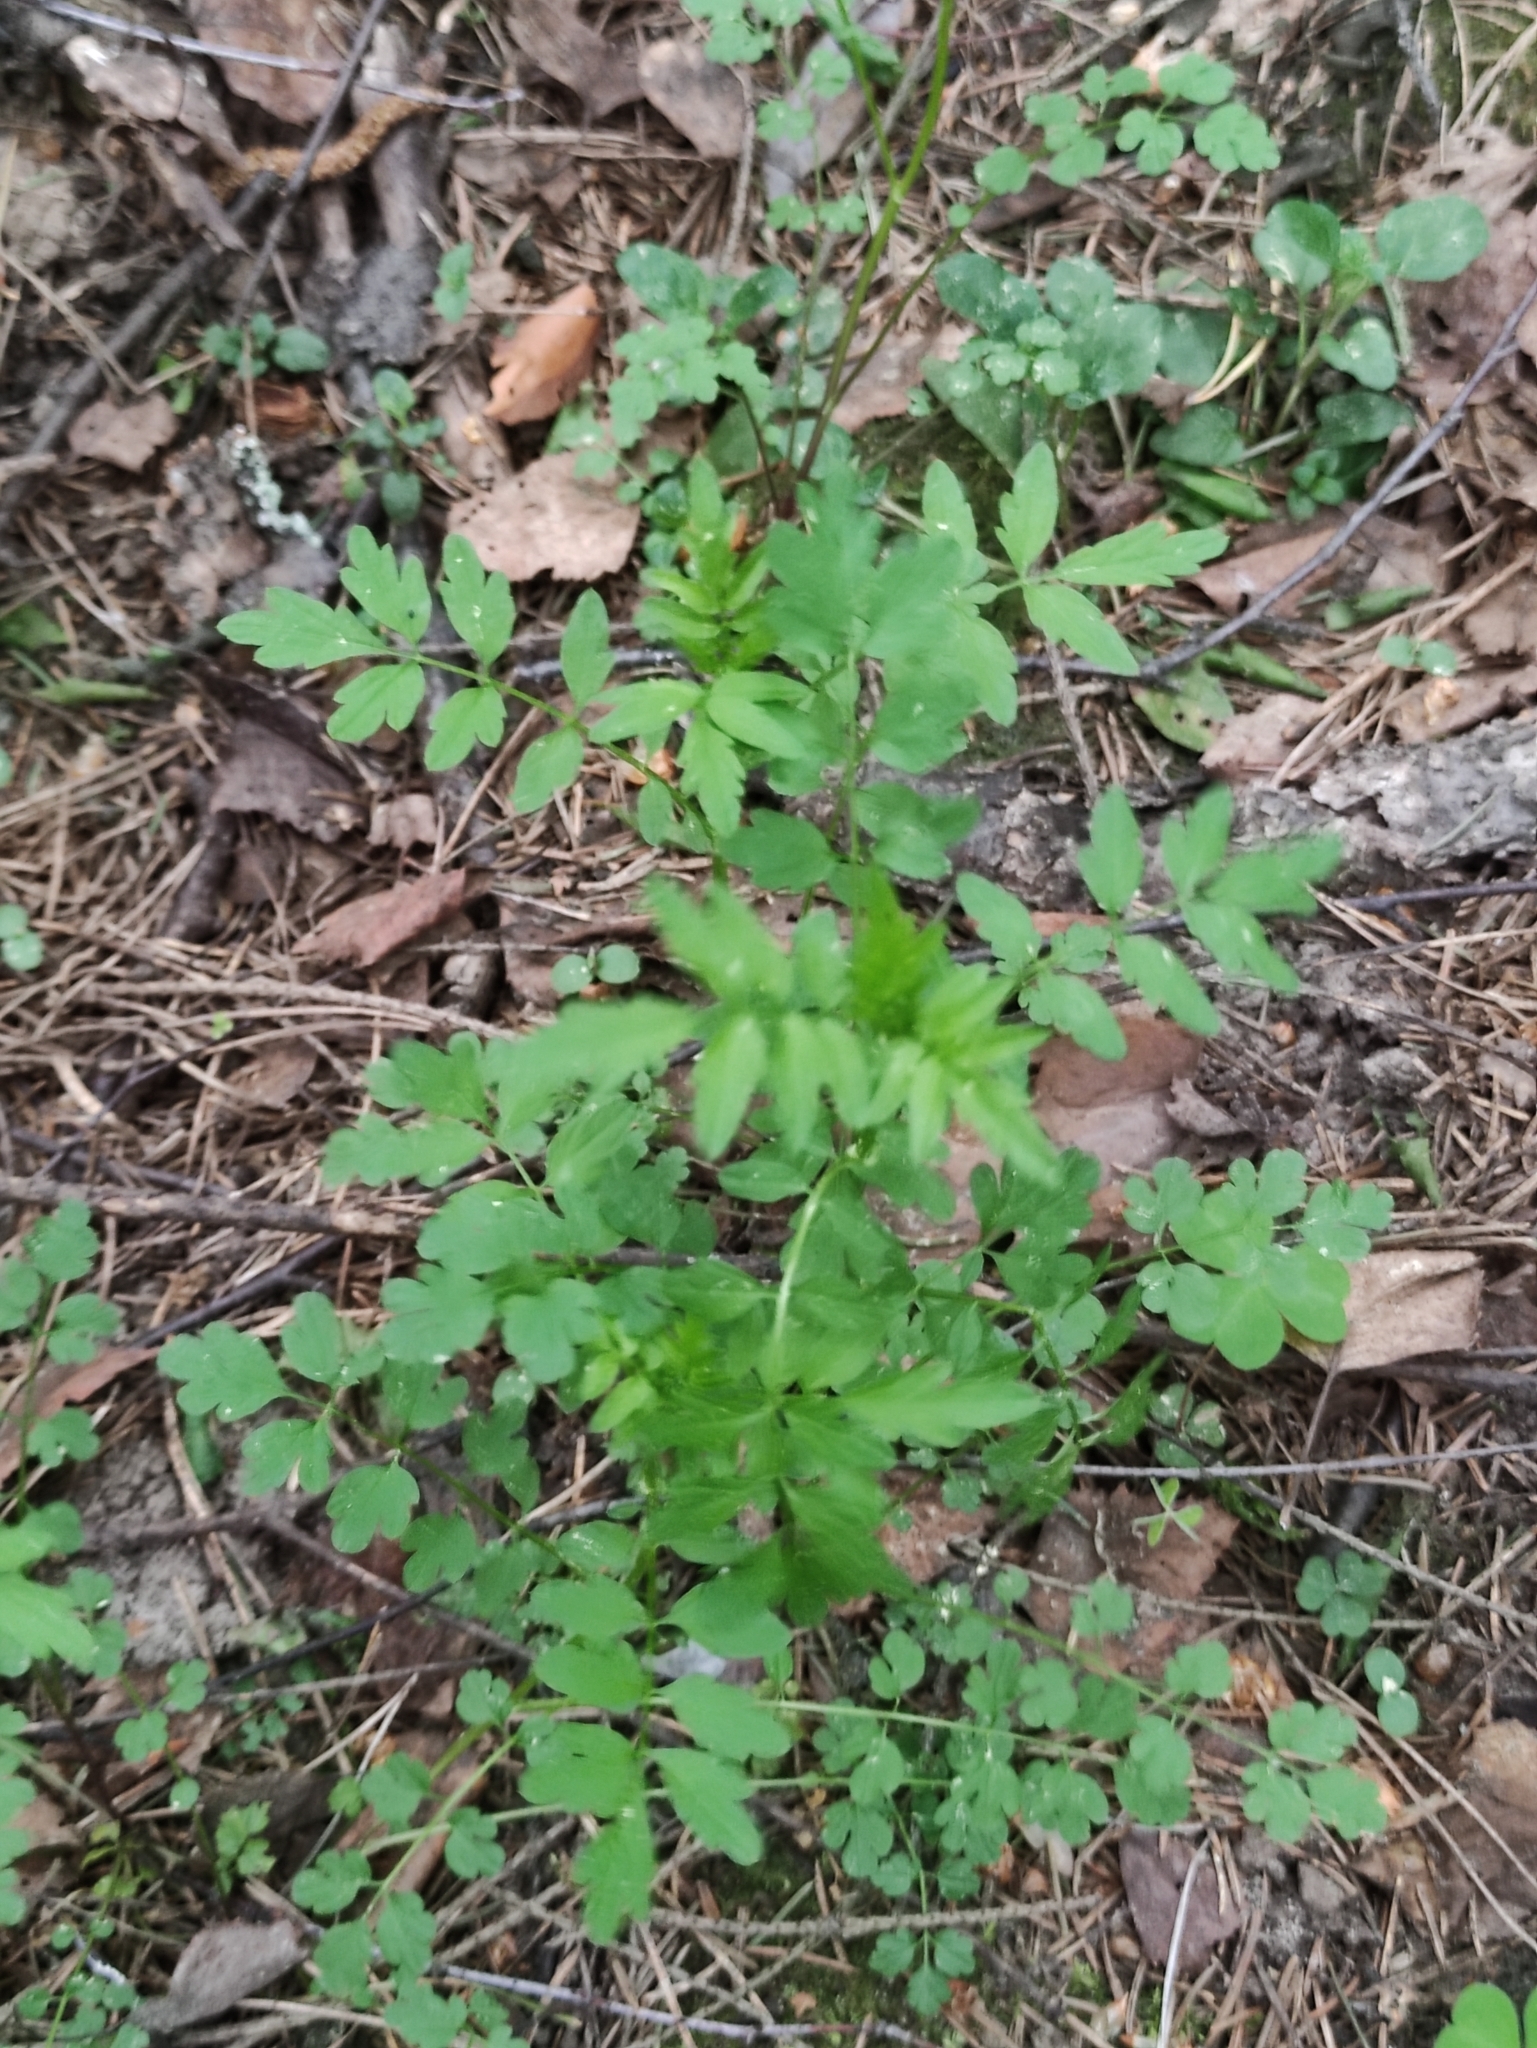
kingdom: Plantae
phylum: Tracheophyta
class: Magnoliopsida
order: Brassicales
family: Brassicaceae
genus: Cardamine
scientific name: Cardamine impatiens
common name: Narrow-leaved bitter-cress
